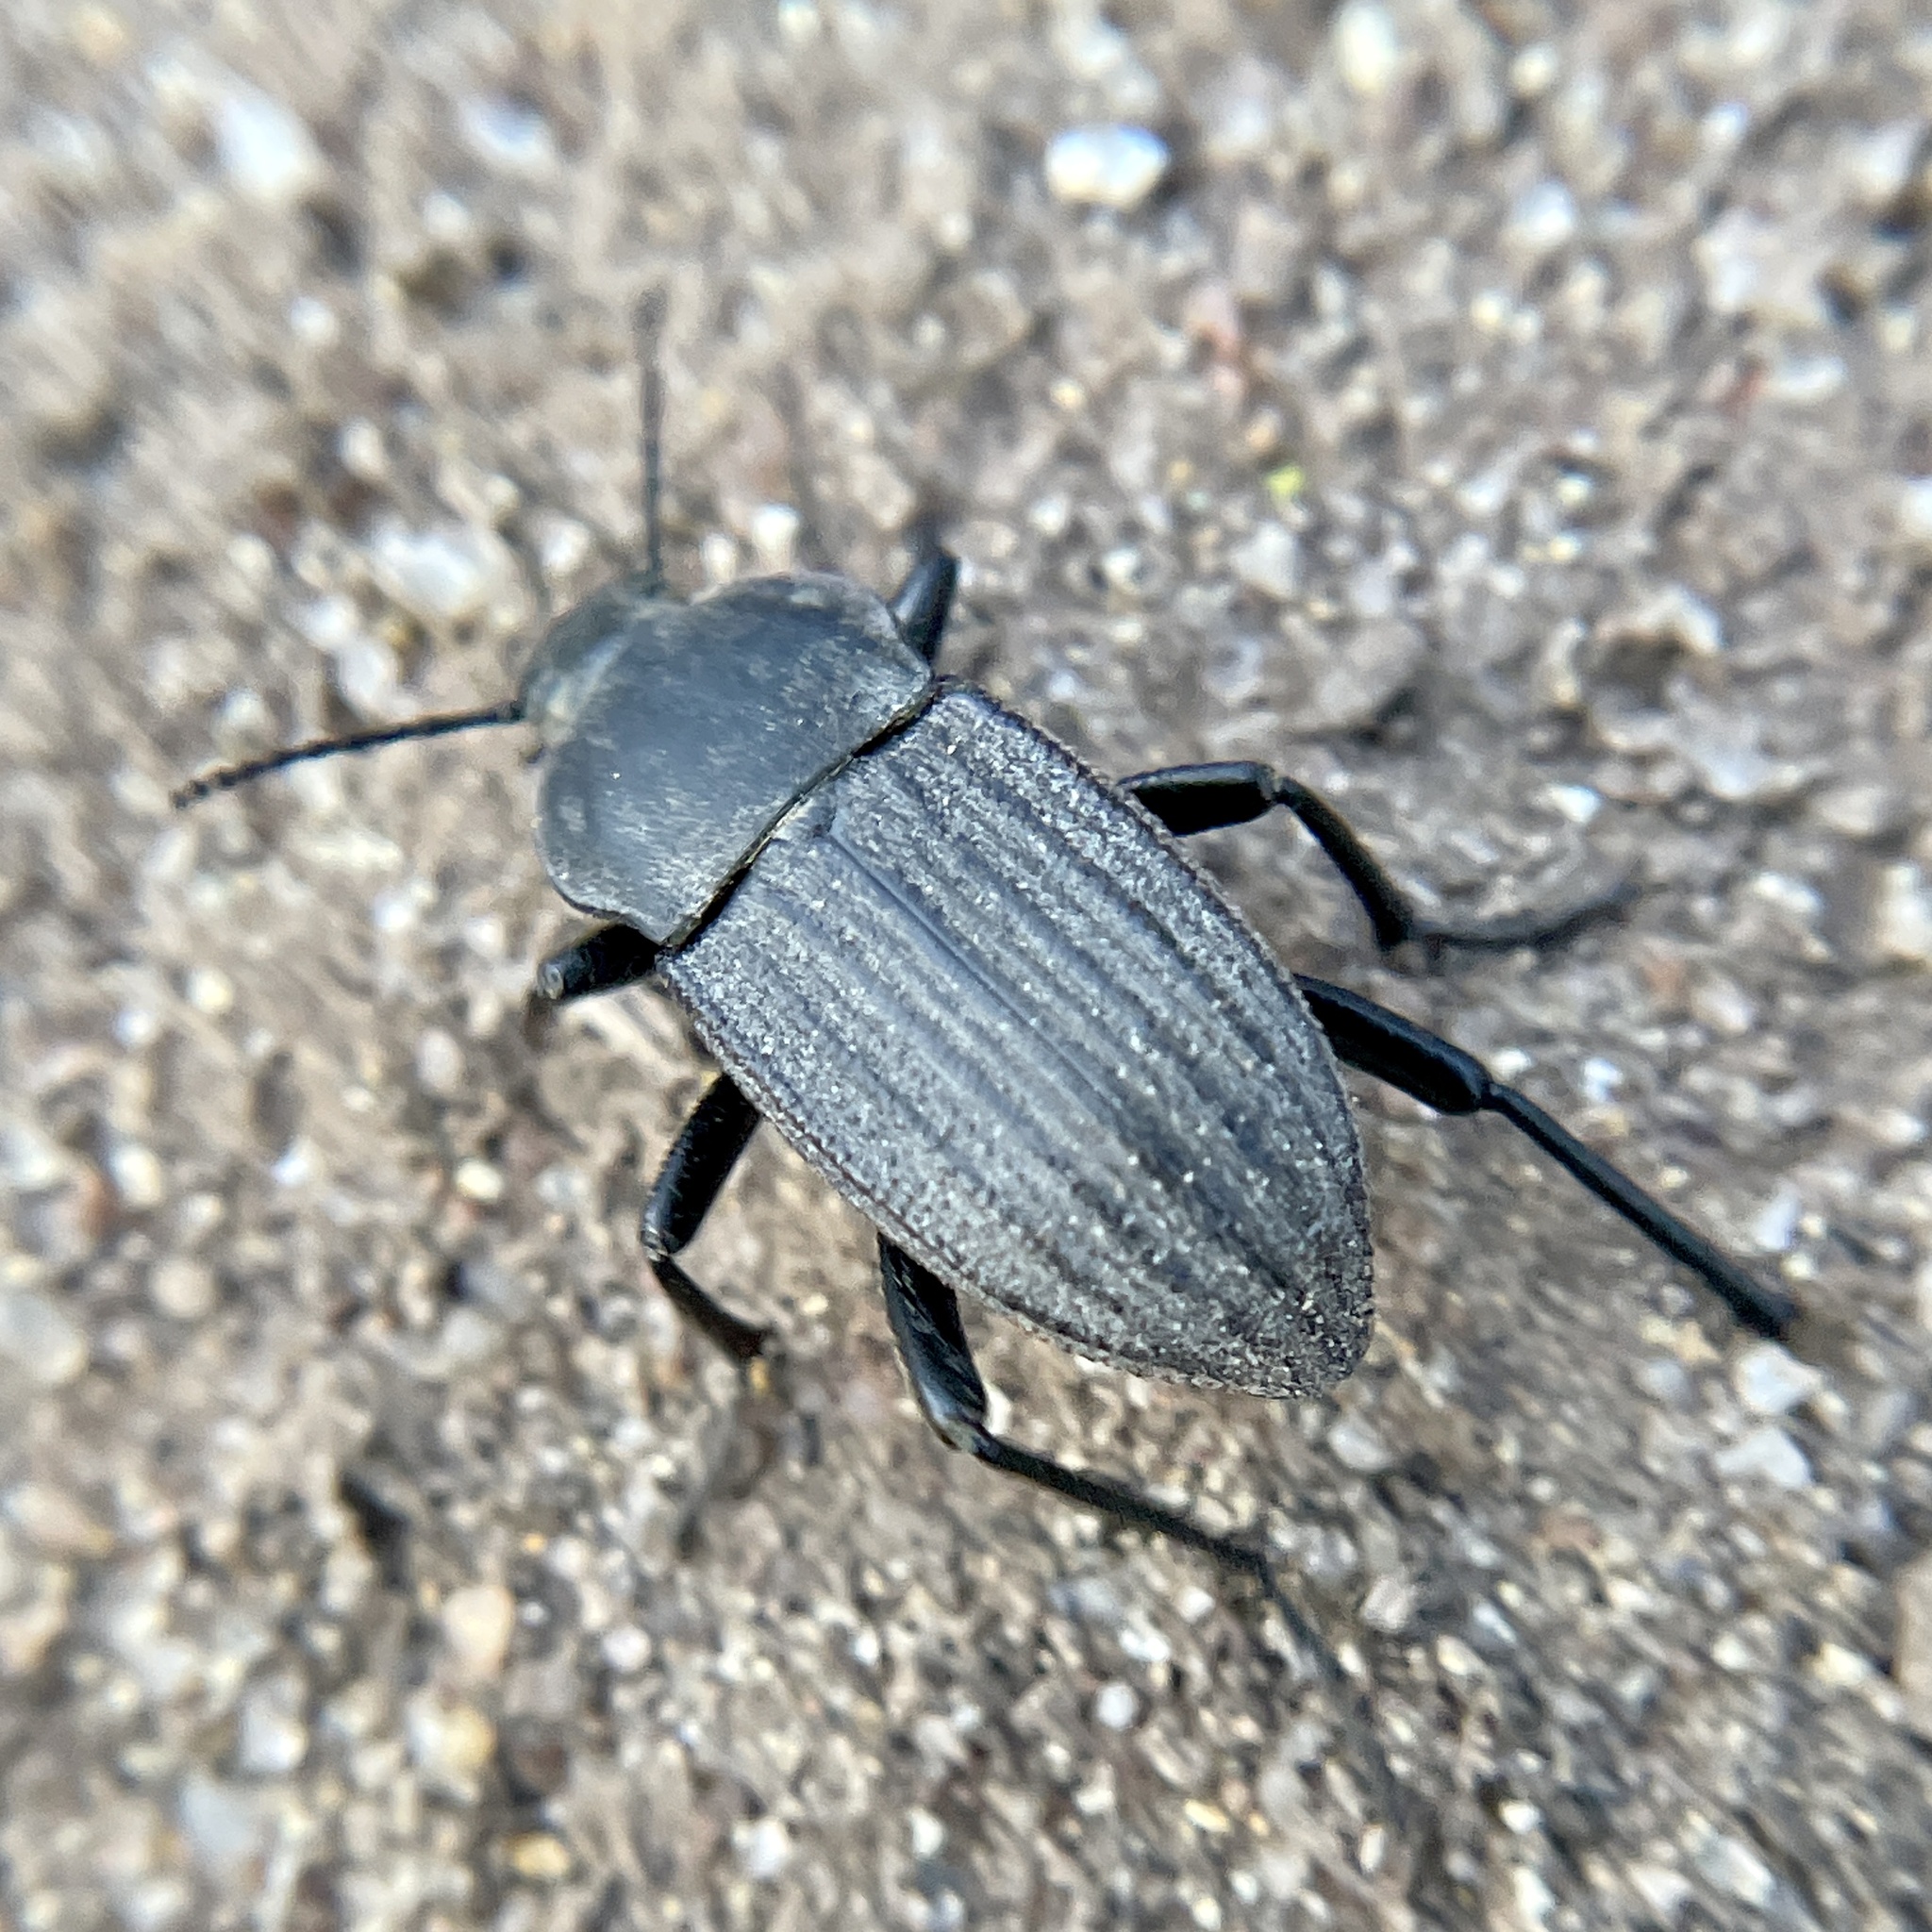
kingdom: Animalia
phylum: Arthropoda
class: Insecta
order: Coleoptera
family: Tenebrionidae
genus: Eleodes
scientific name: Eleodes tricostata
